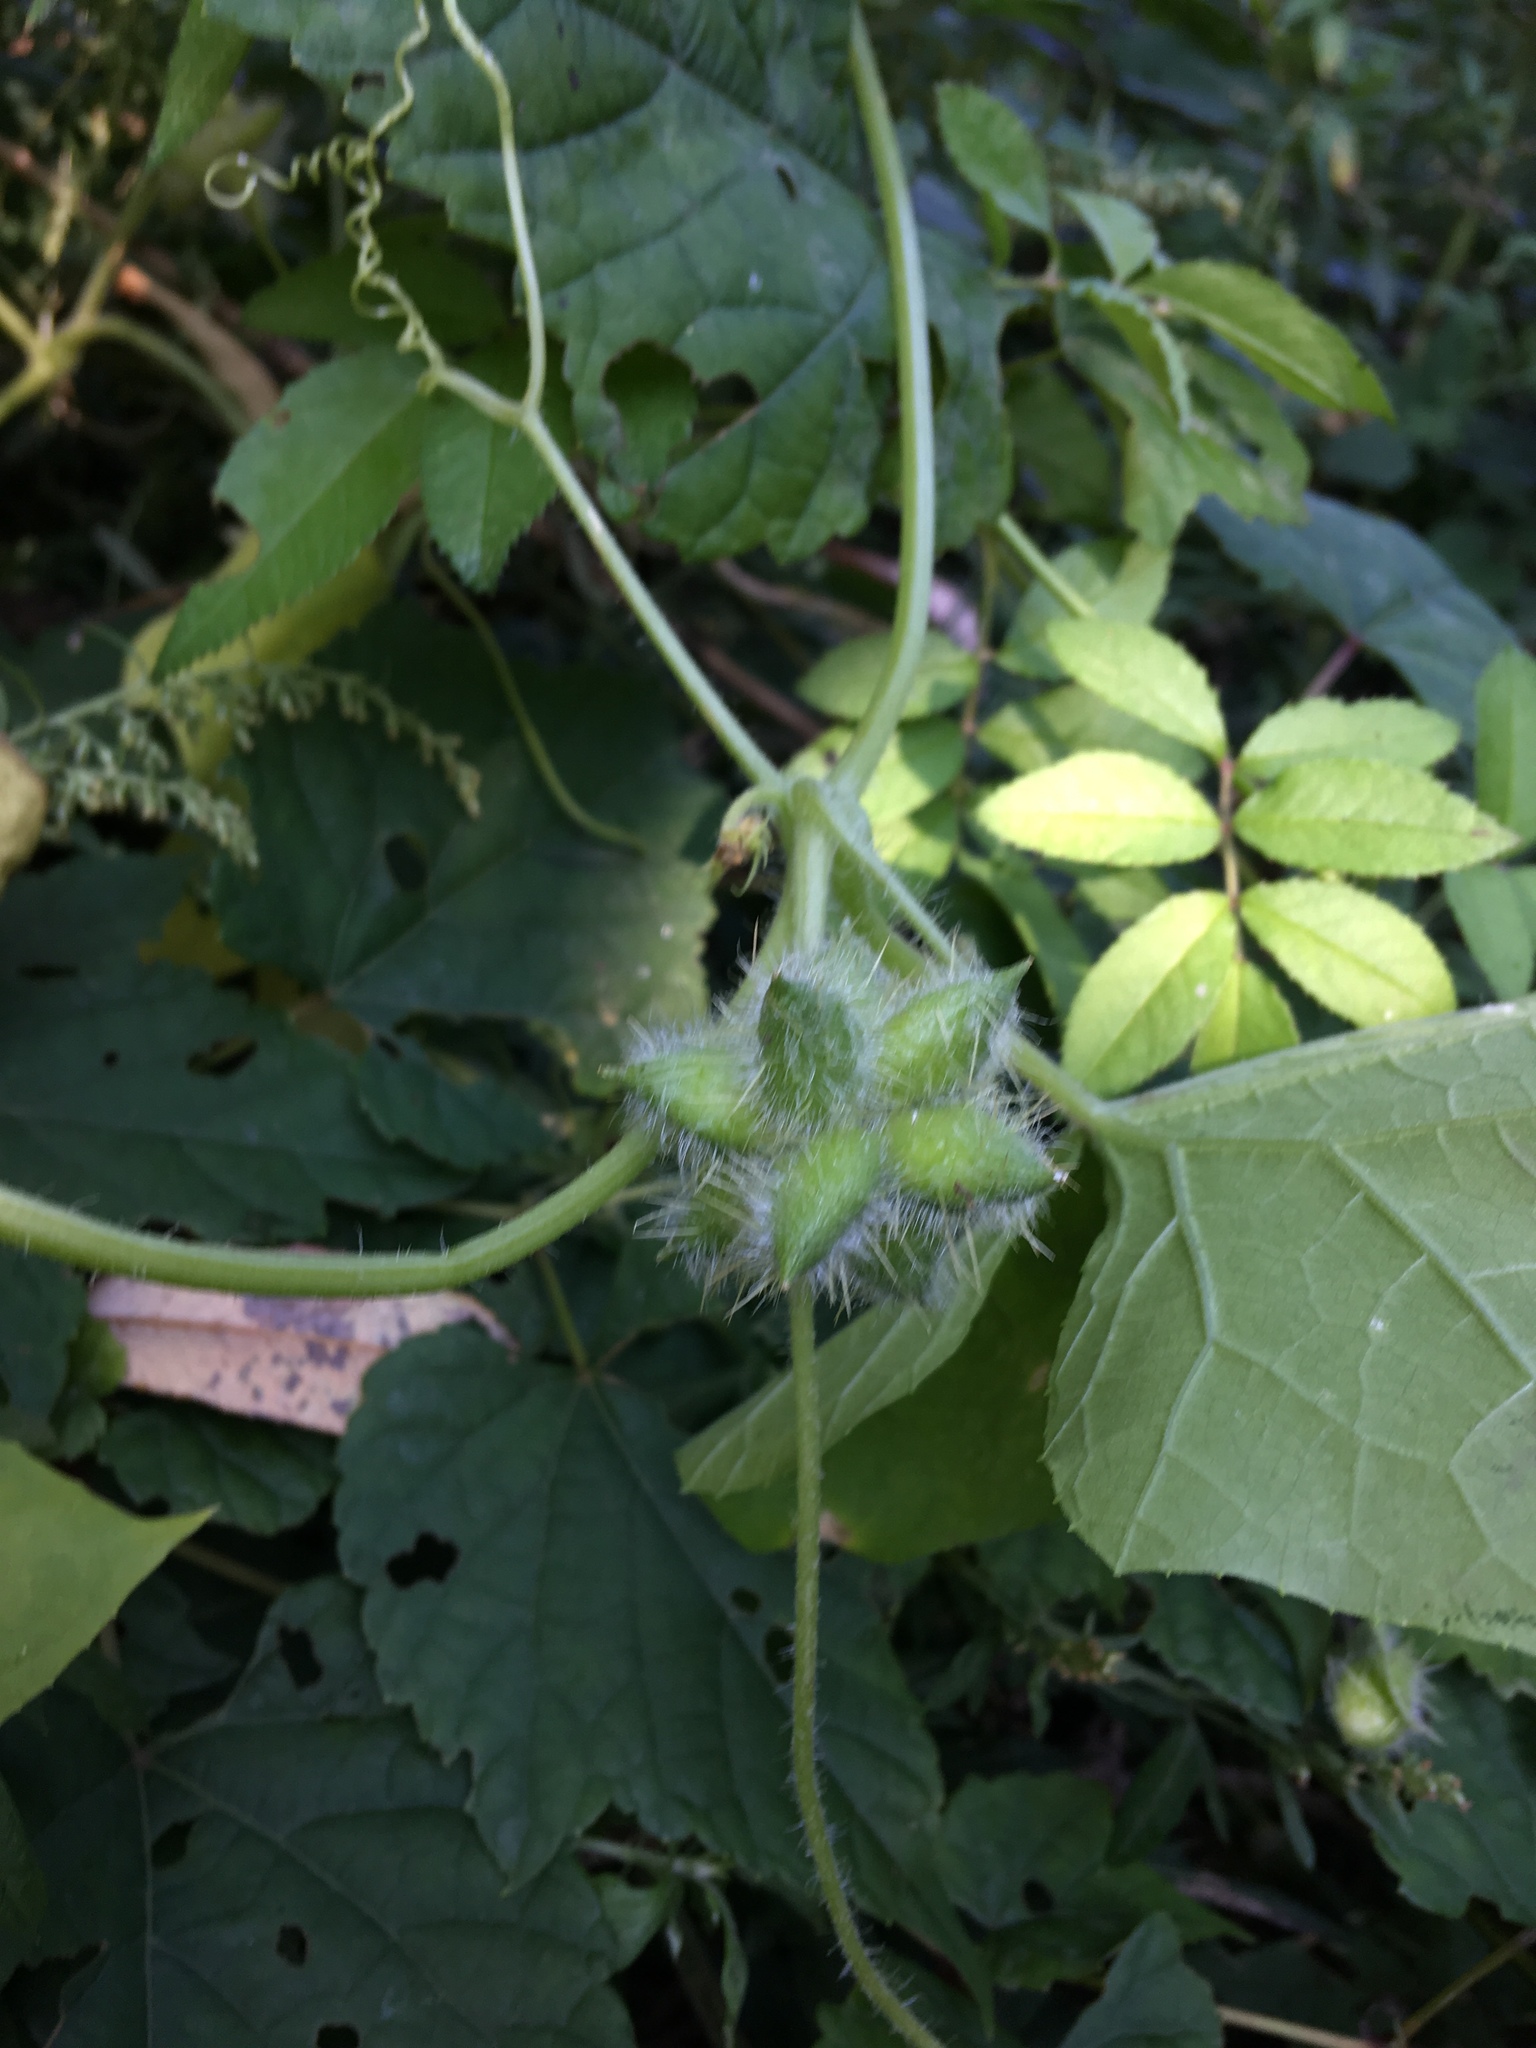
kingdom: Plantae
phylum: Tracheophyta
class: Magnoliopsida
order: Cucurbitales
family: Cucurbitaceae
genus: Sicyos
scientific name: Sicyos angulatus
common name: Angled burr cucumber
